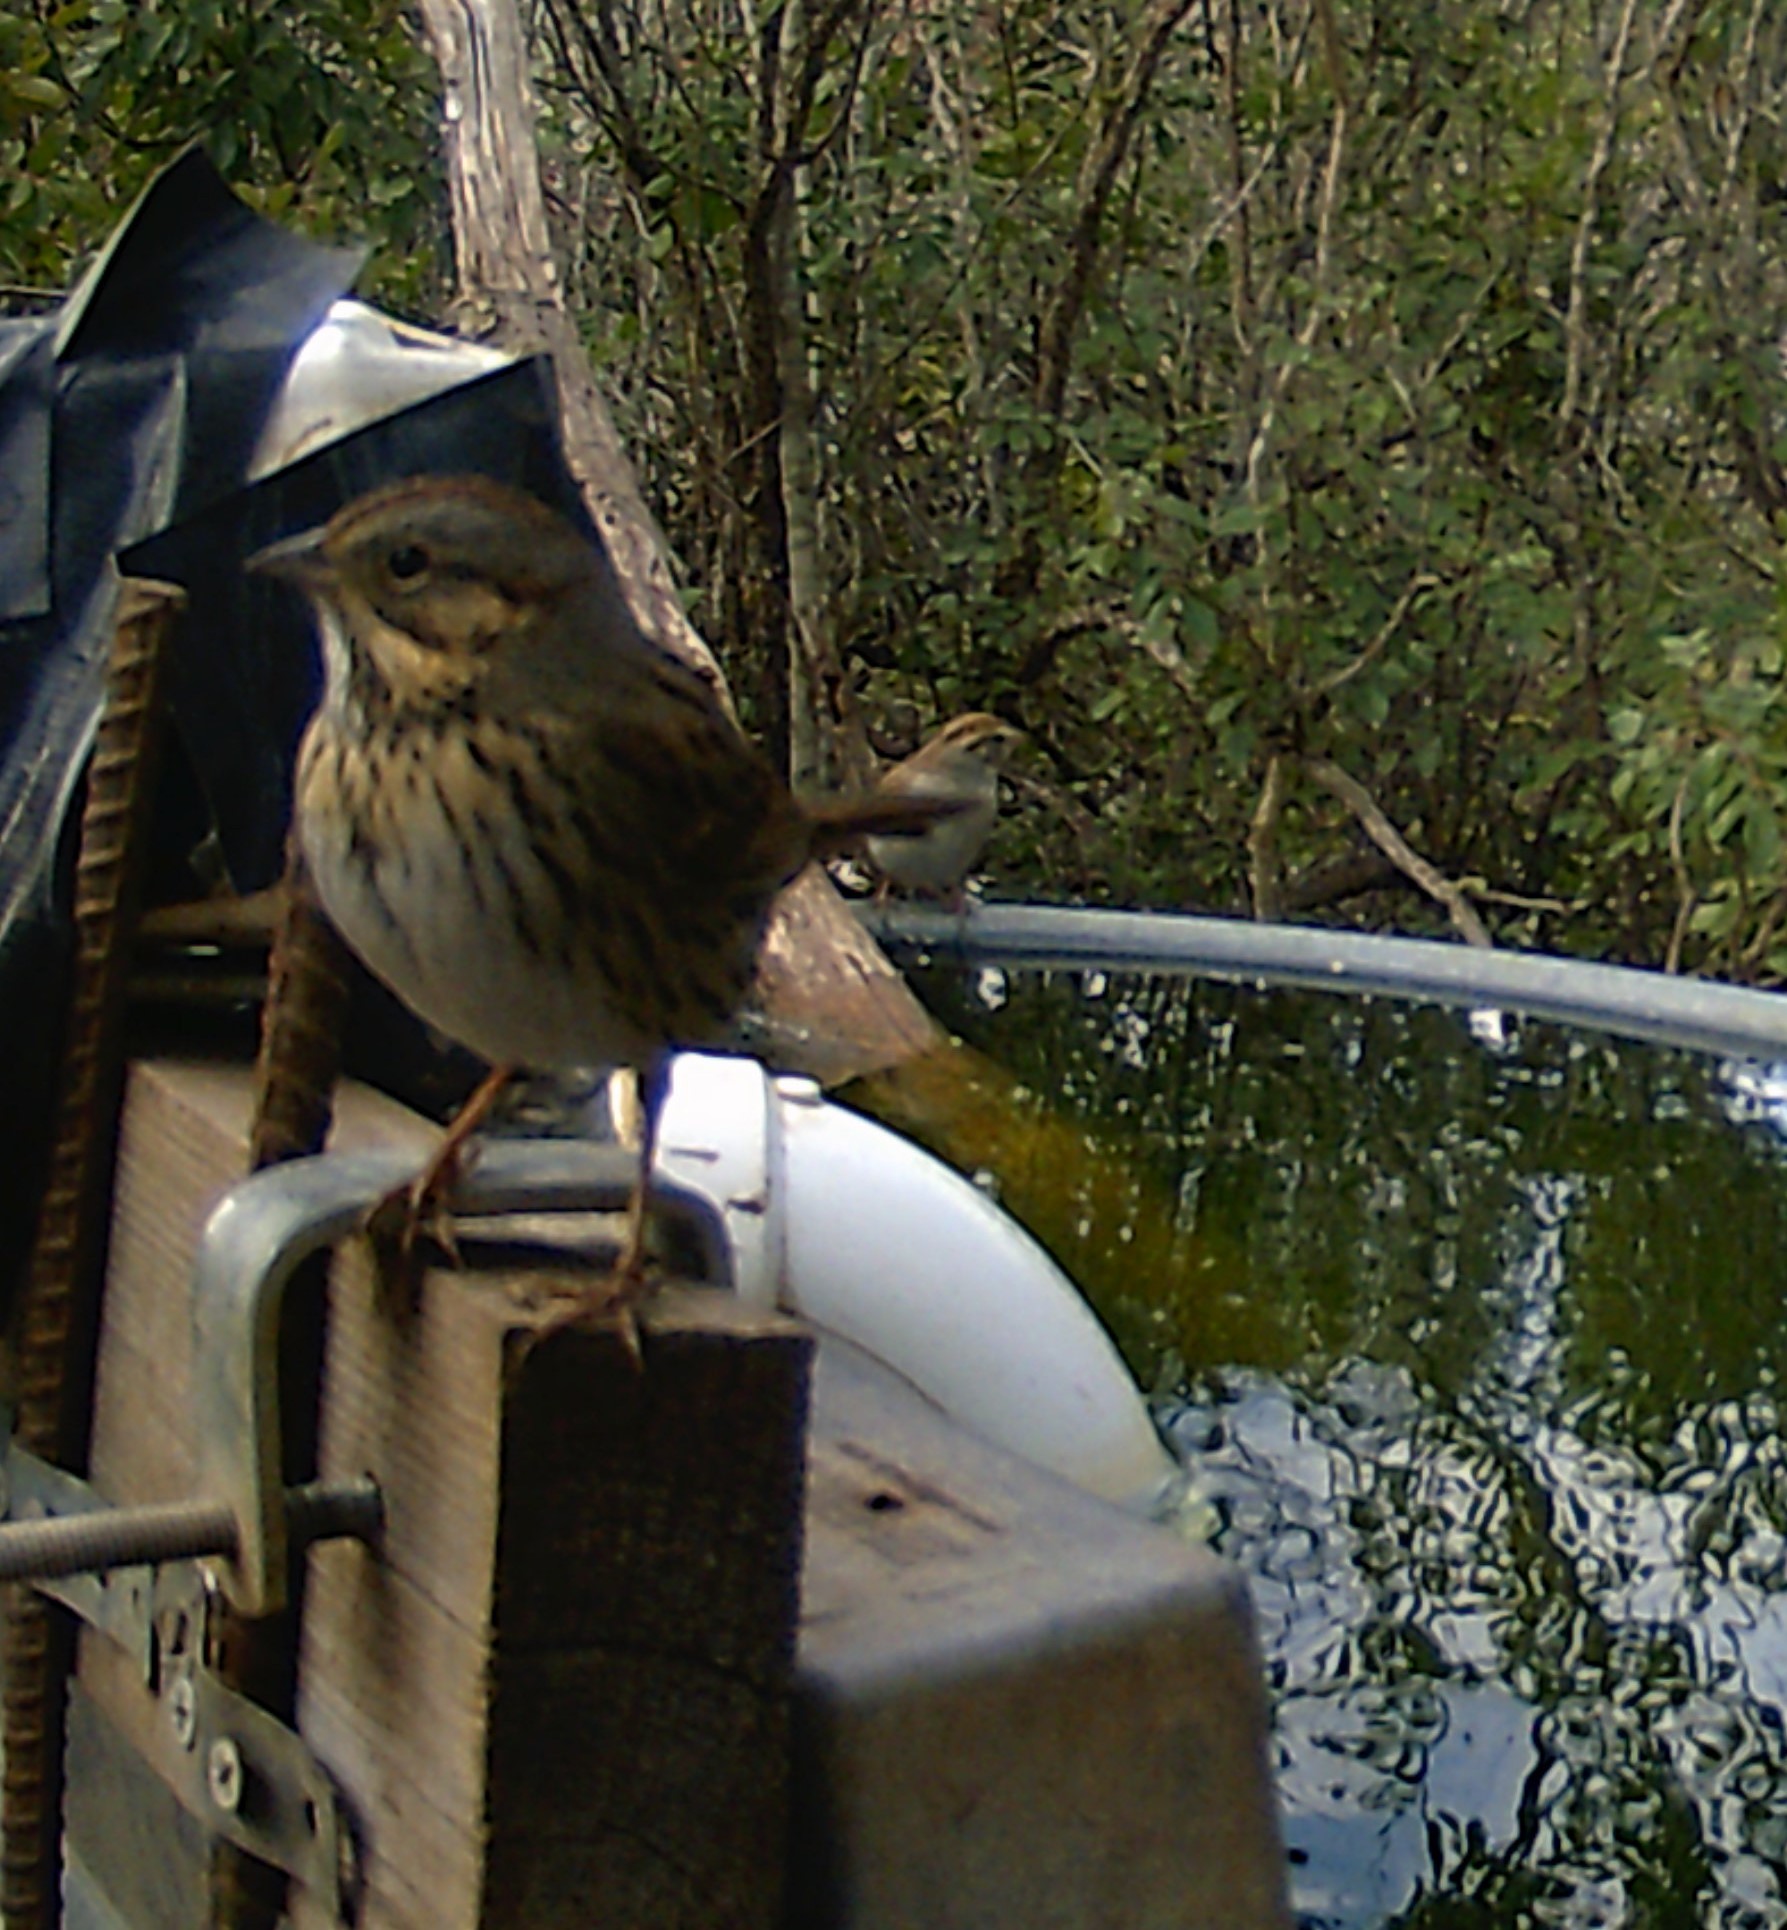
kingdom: Animalia
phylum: Chordata
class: Aves
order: Passeriformes
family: Passerellidae
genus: Melospiza
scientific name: Melospiza lincolnii
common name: Lincoln's sparrow
